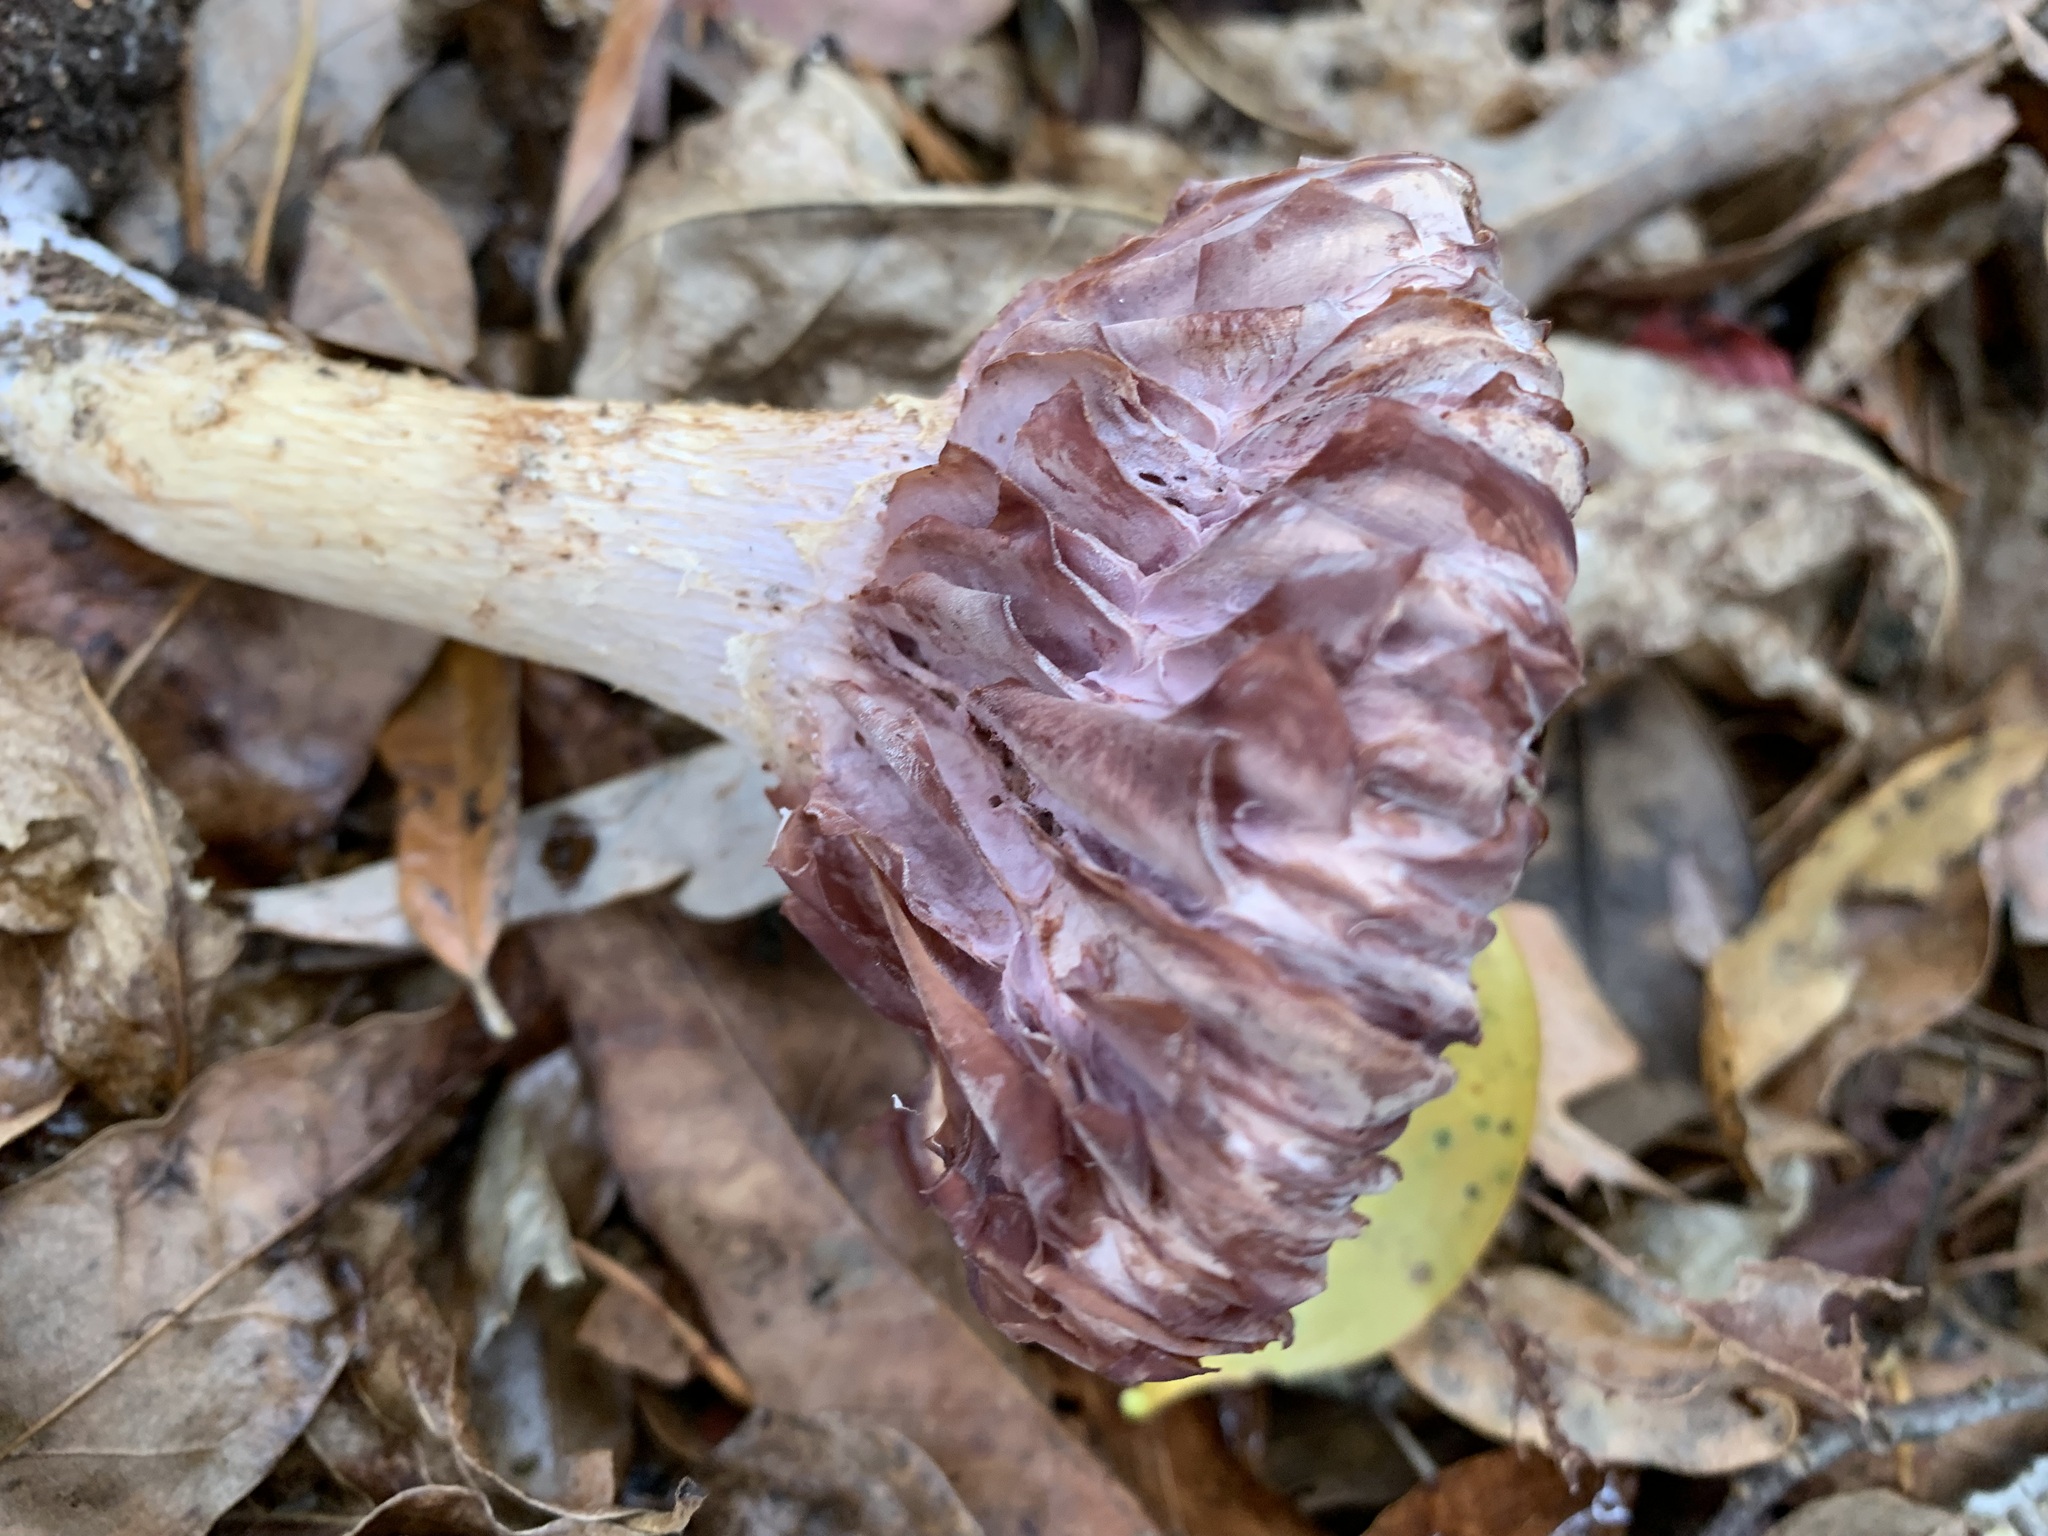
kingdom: Fungi
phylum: Basidiomycota
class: Agaricomycetes
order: Agaricales
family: Hydnangiaceae
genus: Laccaria
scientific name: Laccaria ochropurpurea
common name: Purple laccaria
